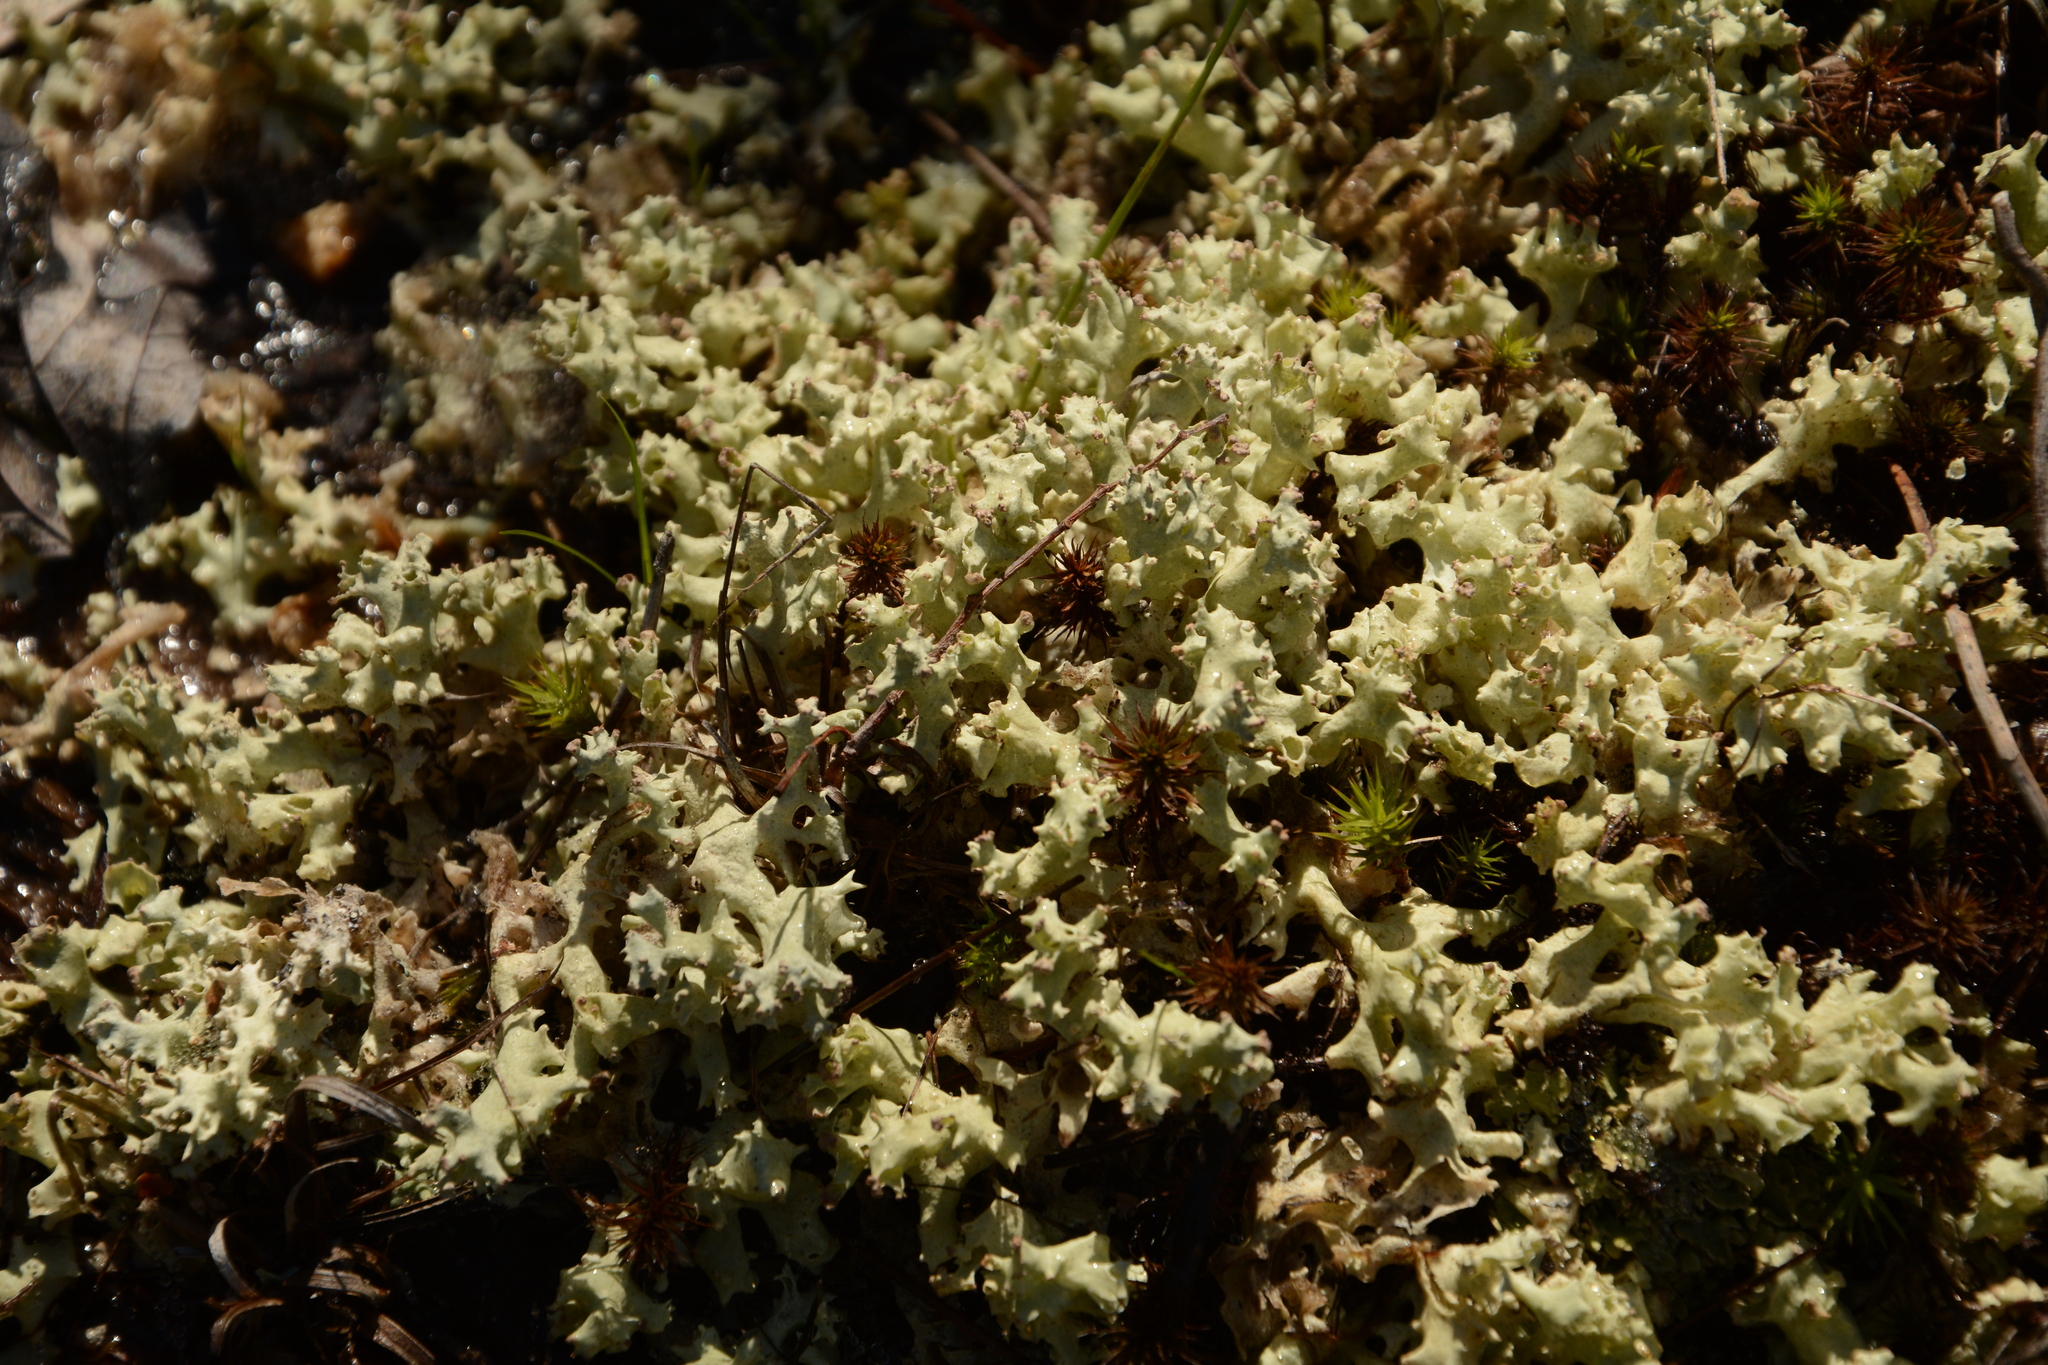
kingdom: Fungi
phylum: Ascomycota
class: Lecanoromycetes
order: Lecanorales
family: Cladoniaceae
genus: Cladonia
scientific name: Cladonia caroliniana
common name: Granite thorn
